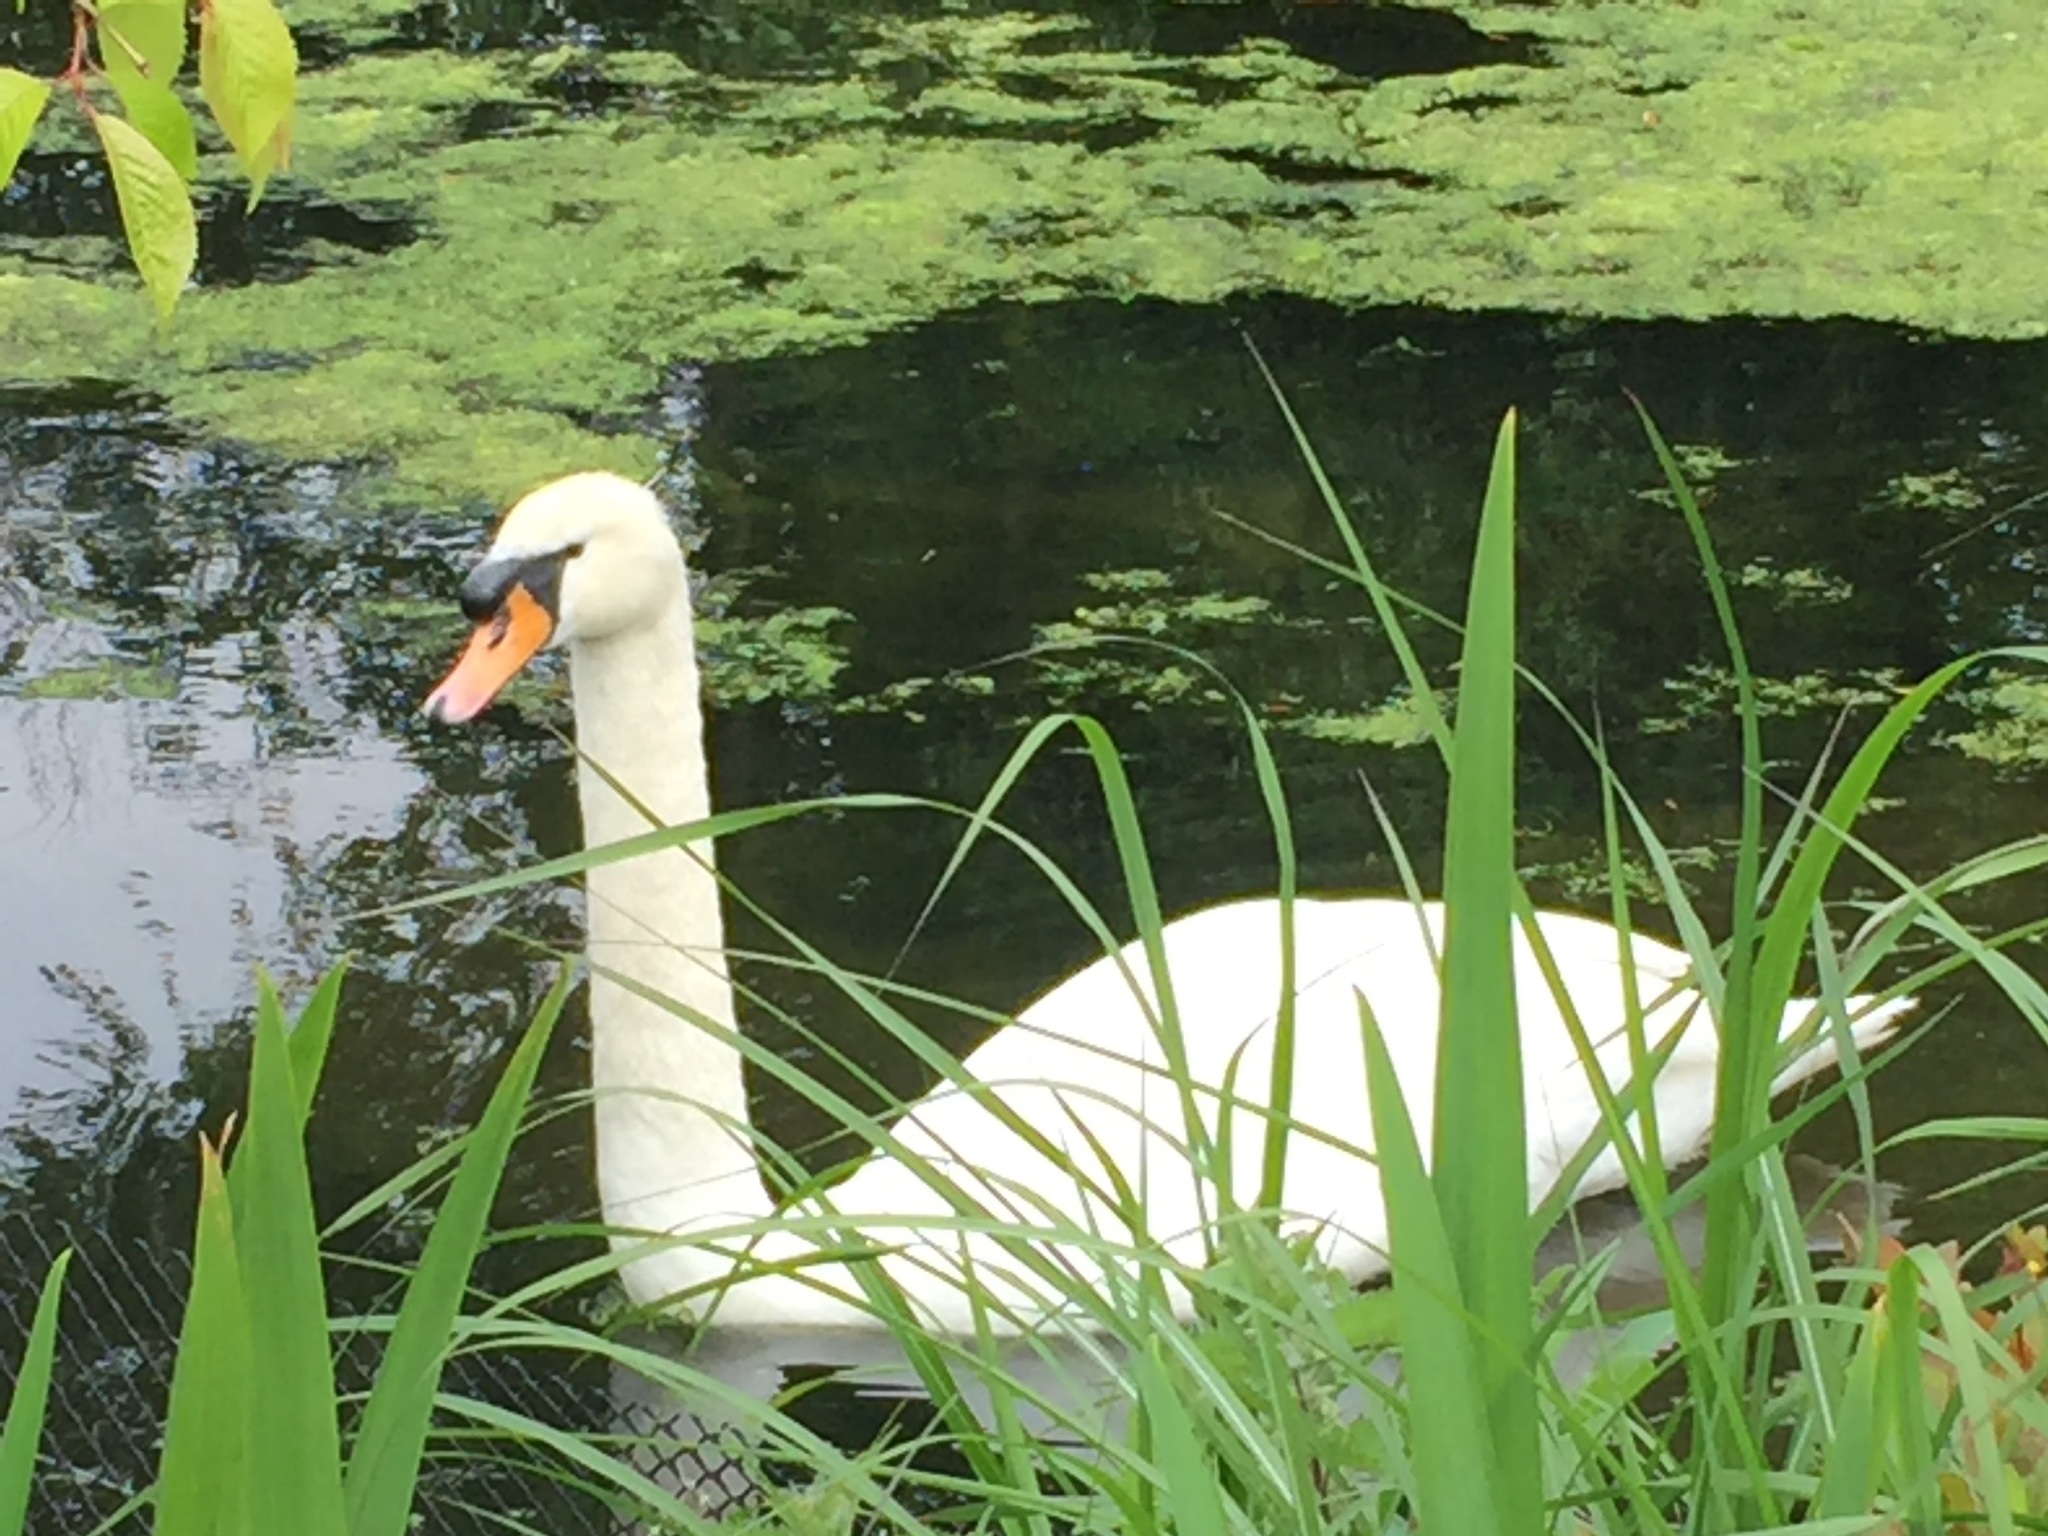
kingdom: Animalia
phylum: Chordata
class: Aves
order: Anseriformes
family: Anatidae
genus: Cygnus
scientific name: Cygnus olor
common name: Mute swan
